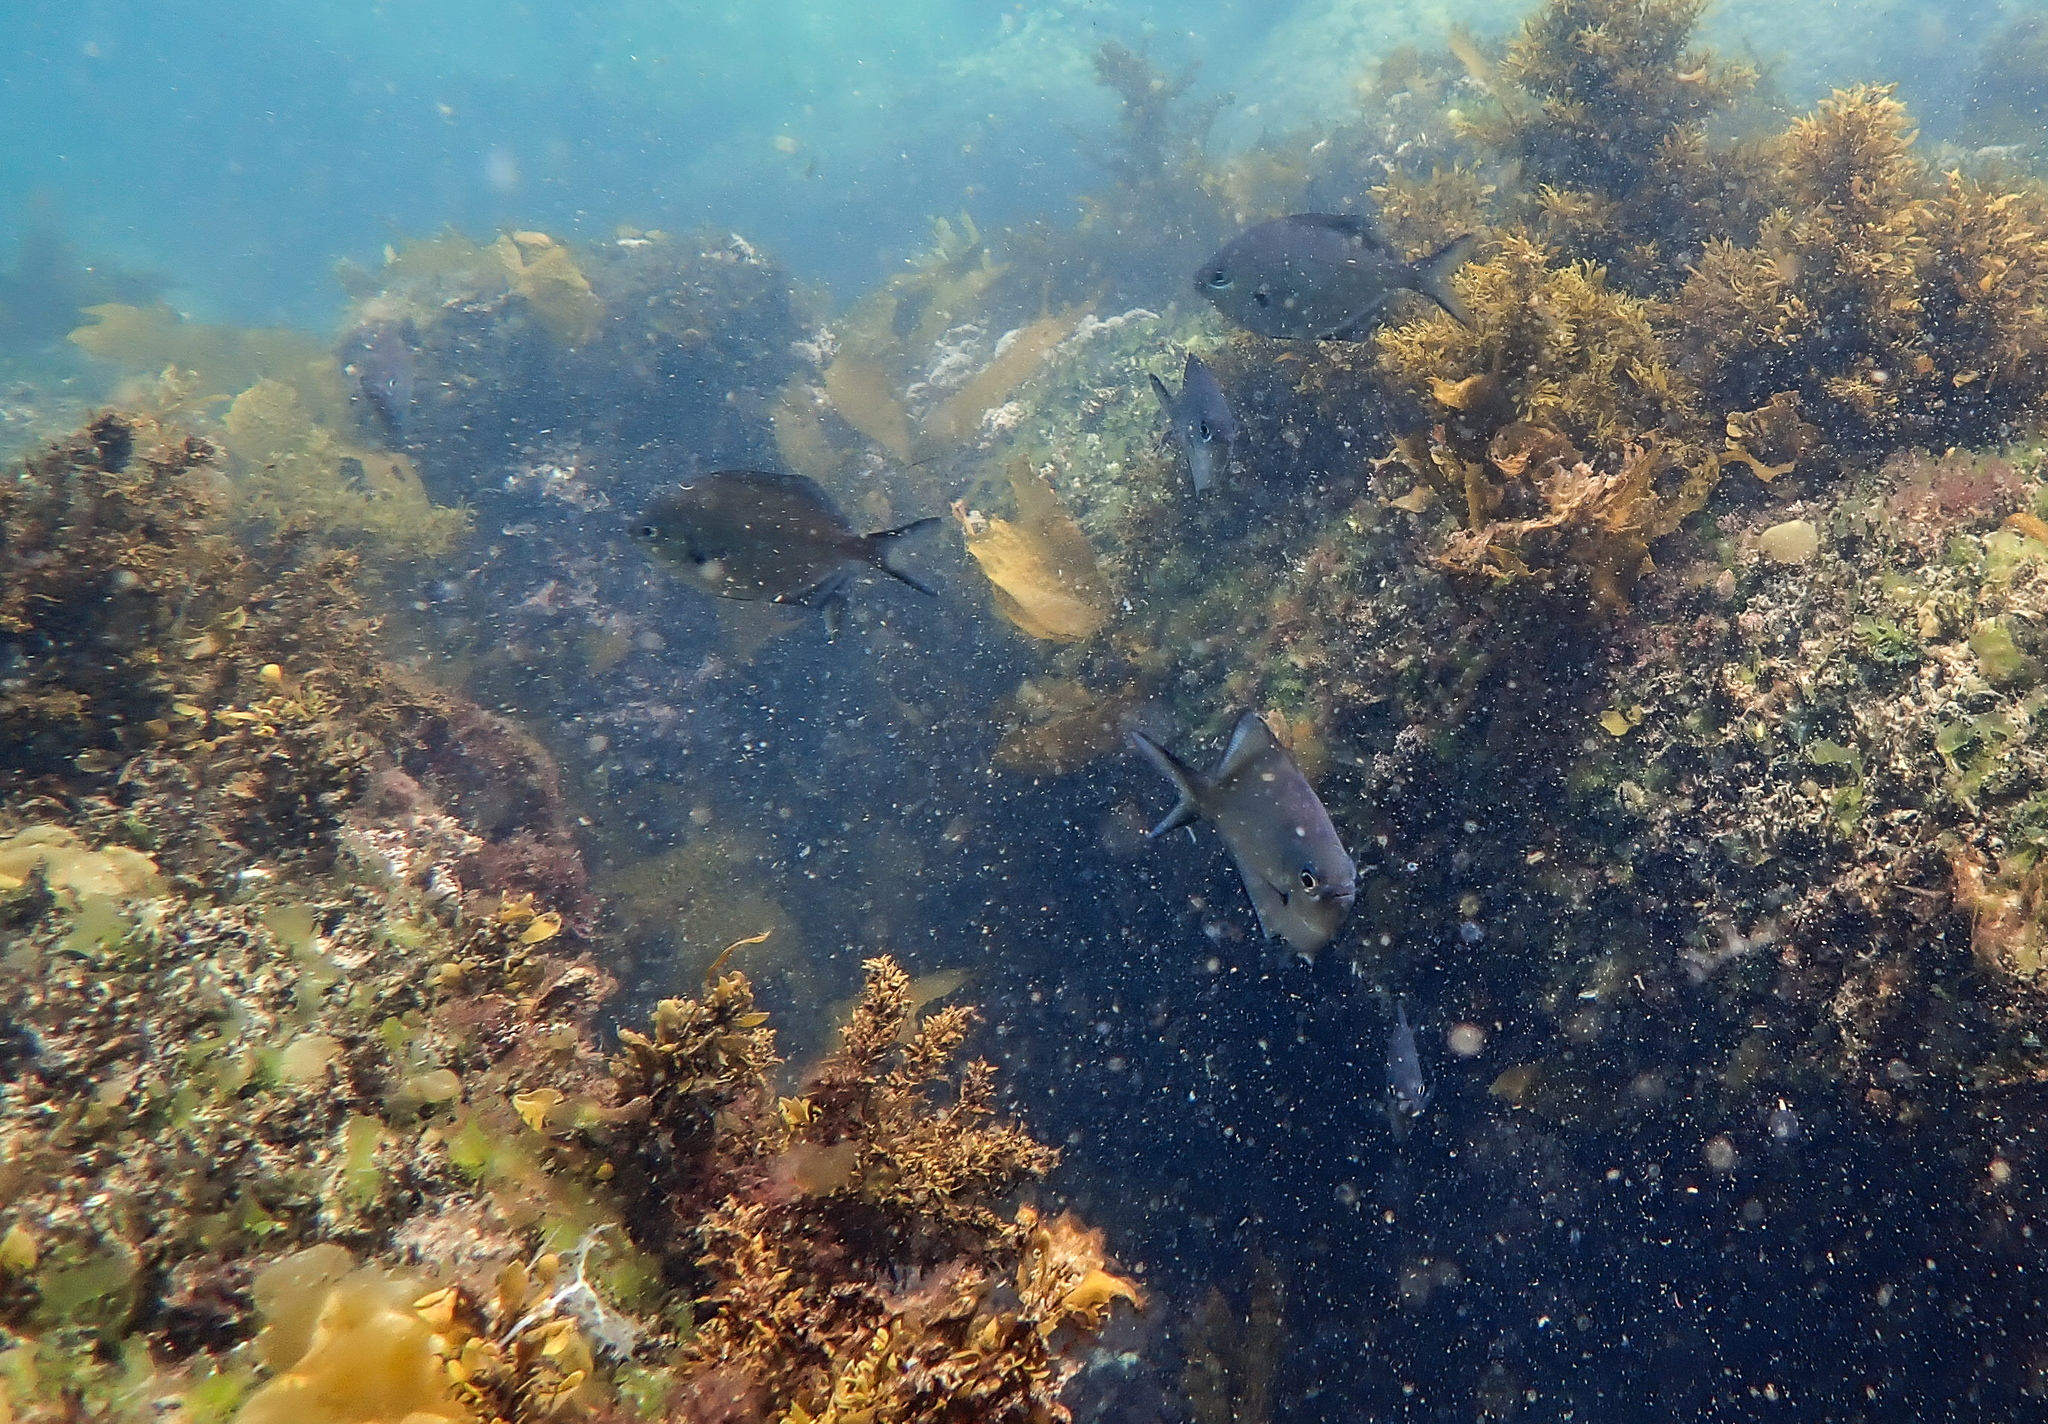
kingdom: Animalia
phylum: Chordata
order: Perciformes
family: Kyphosidae
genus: Scorpis
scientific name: Scorpis lineolata
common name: Sweep
